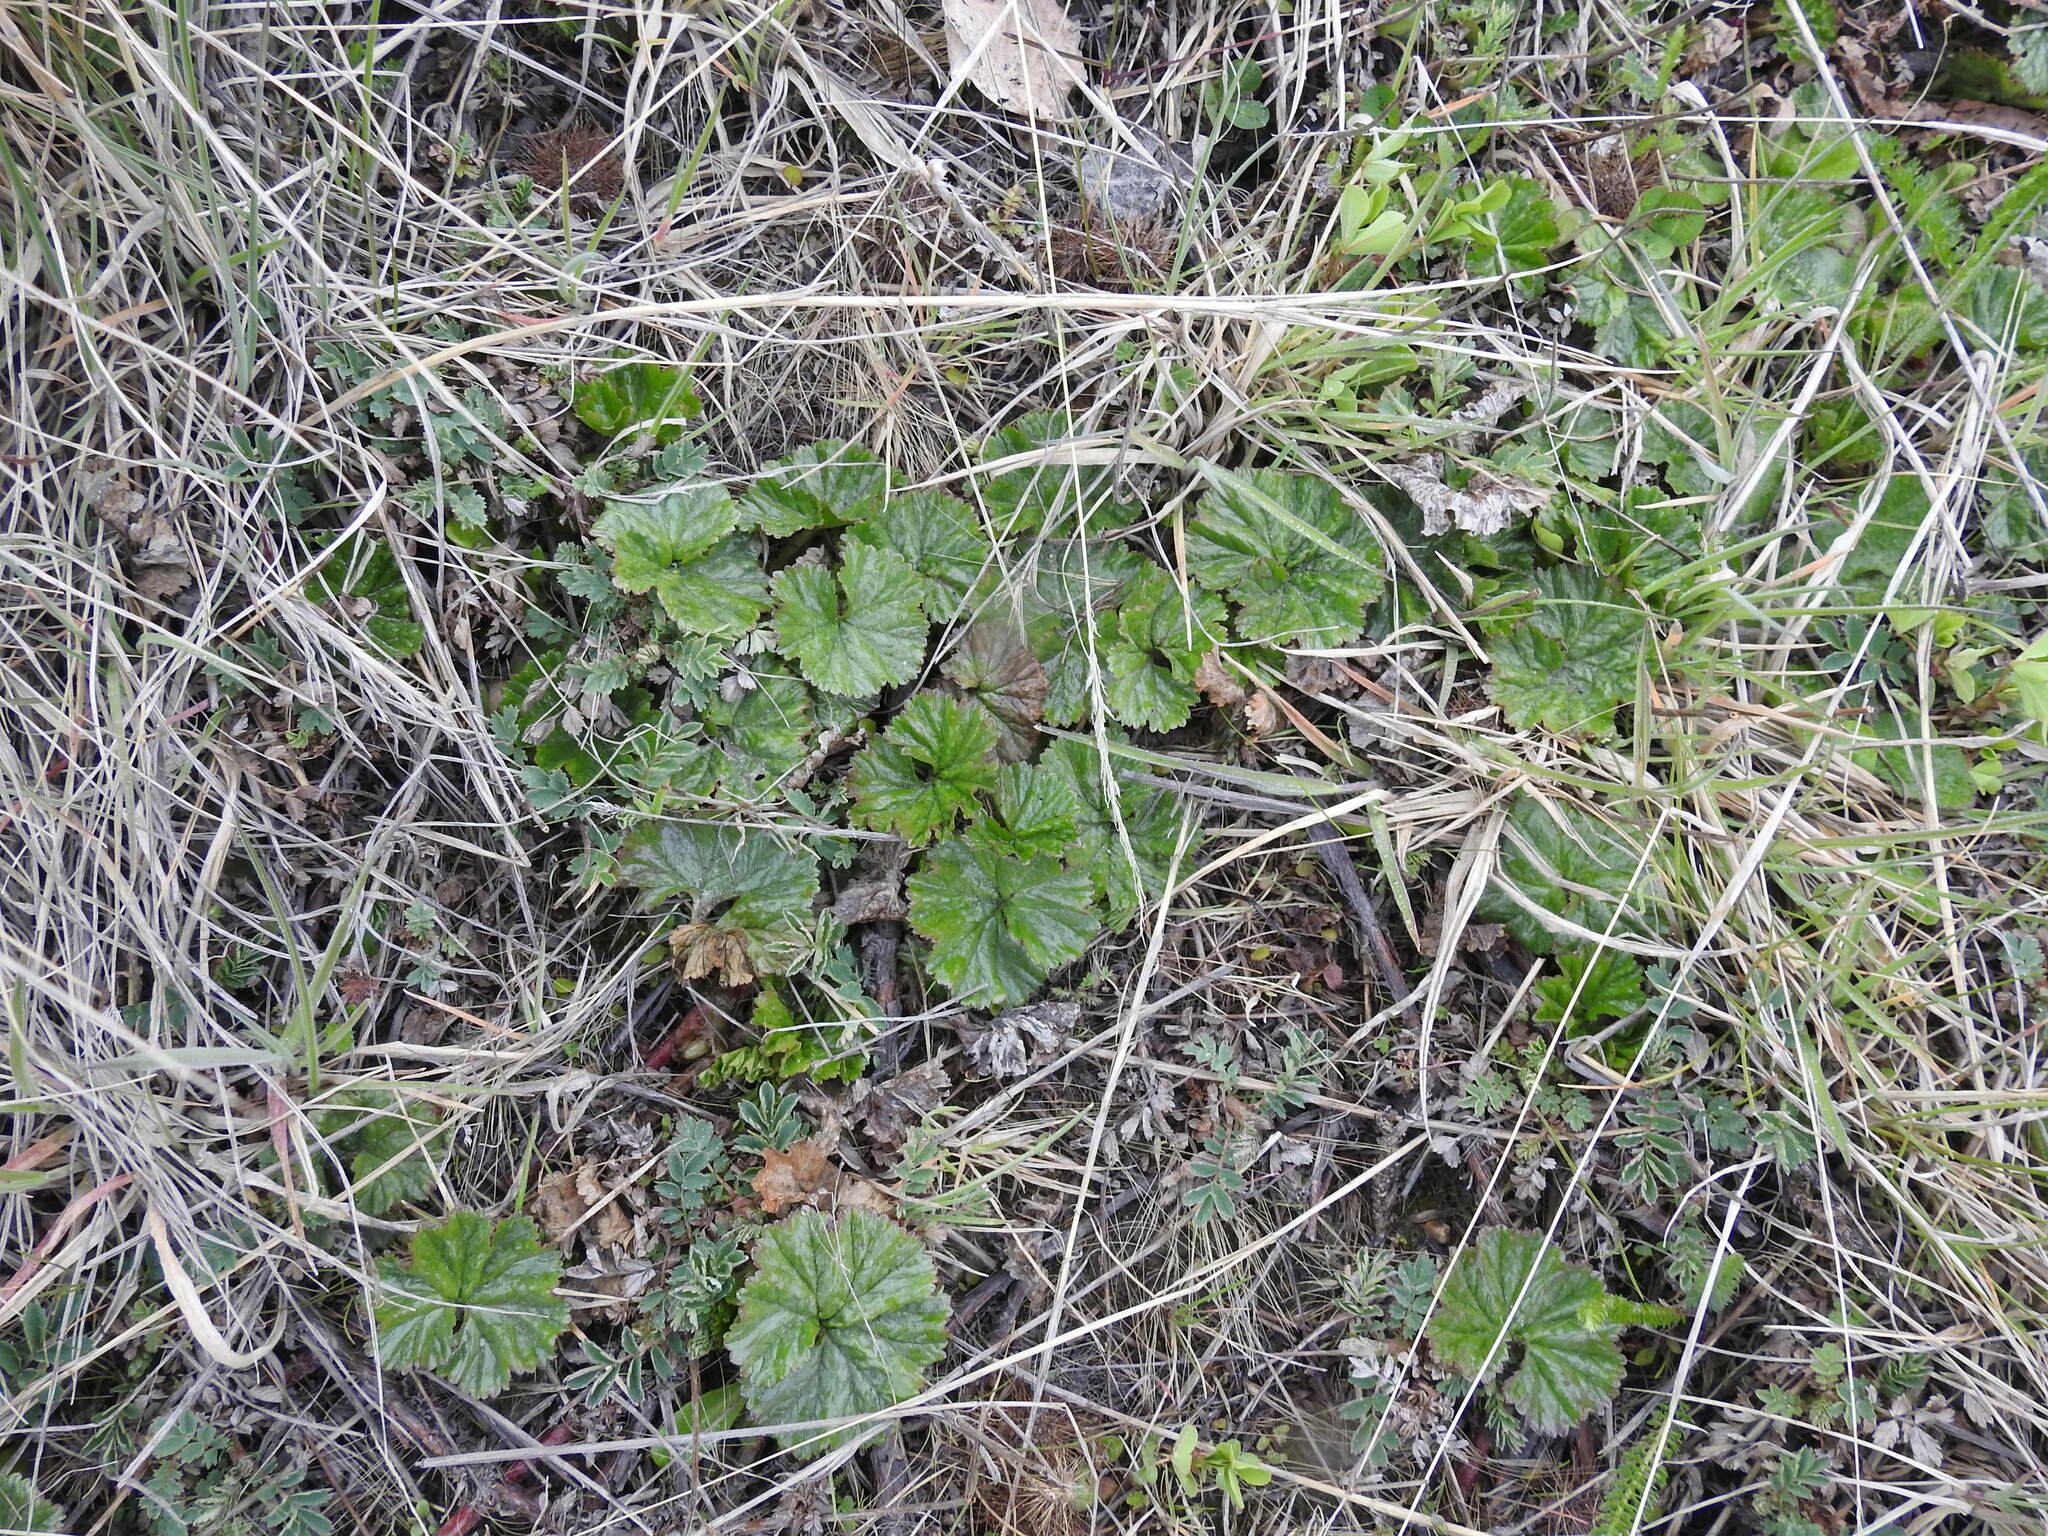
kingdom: Plantae
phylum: Tracheophyta
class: Magnoliopsida
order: Gunnerales
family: Gunneraceae
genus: Gunnera
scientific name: Gunnera magellanica
